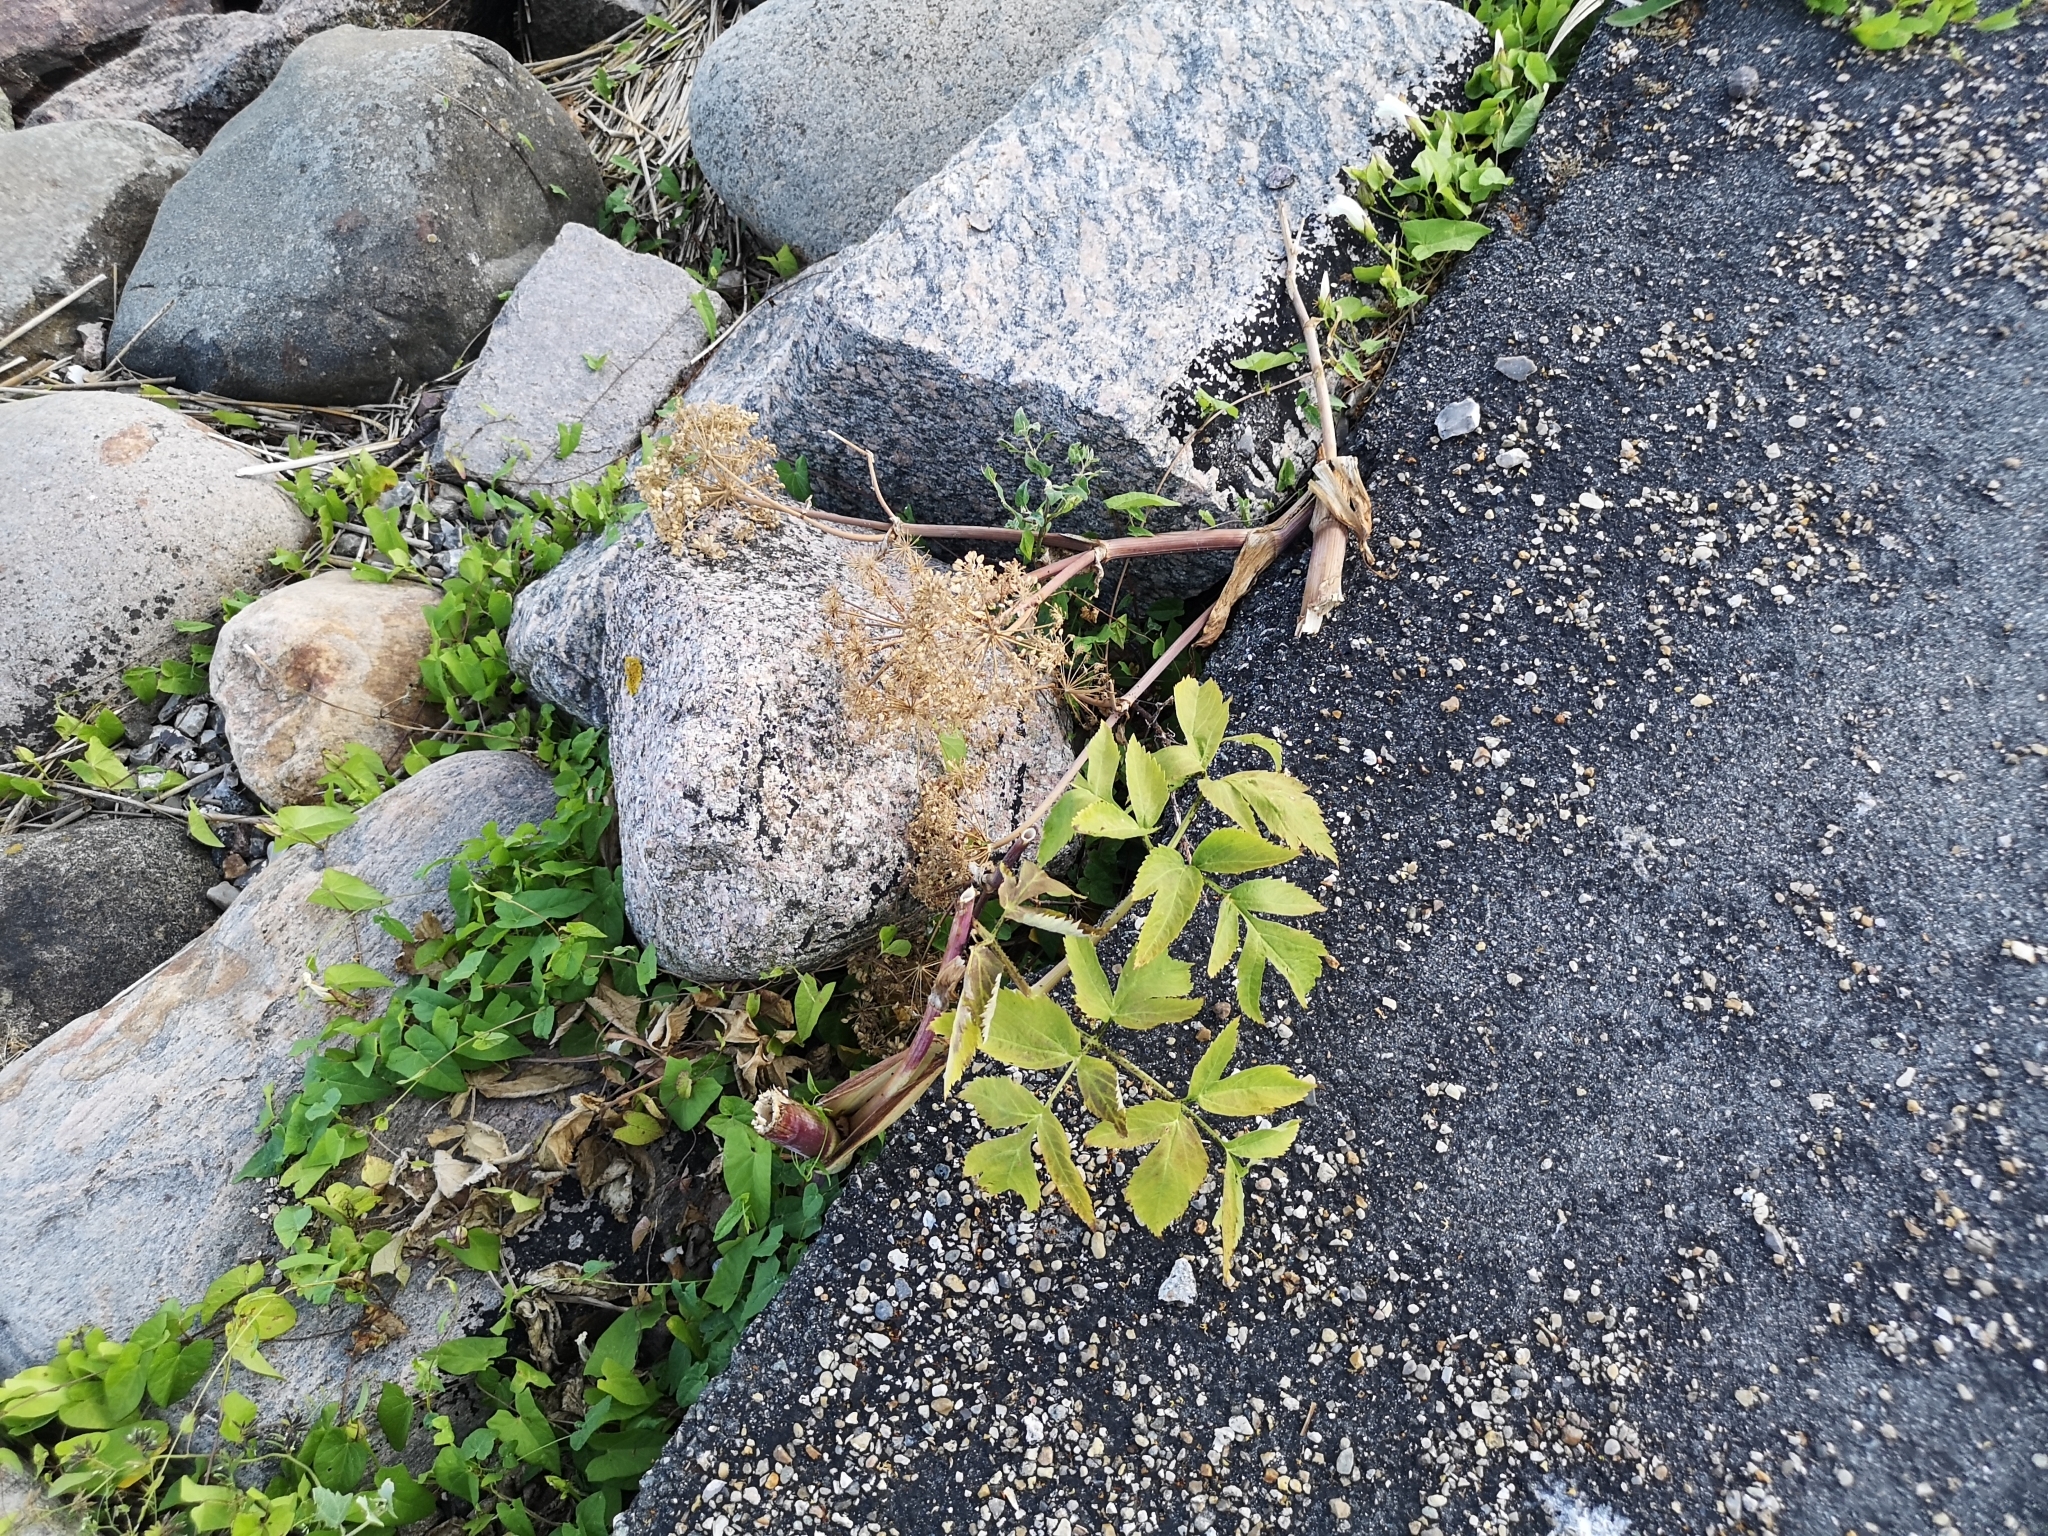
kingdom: Plantae
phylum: Tracheophyta
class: Magnoliopsida
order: Apiales
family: Apiaceae
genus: Angelica
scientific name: Angelica archangelica
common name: Garden angelica
